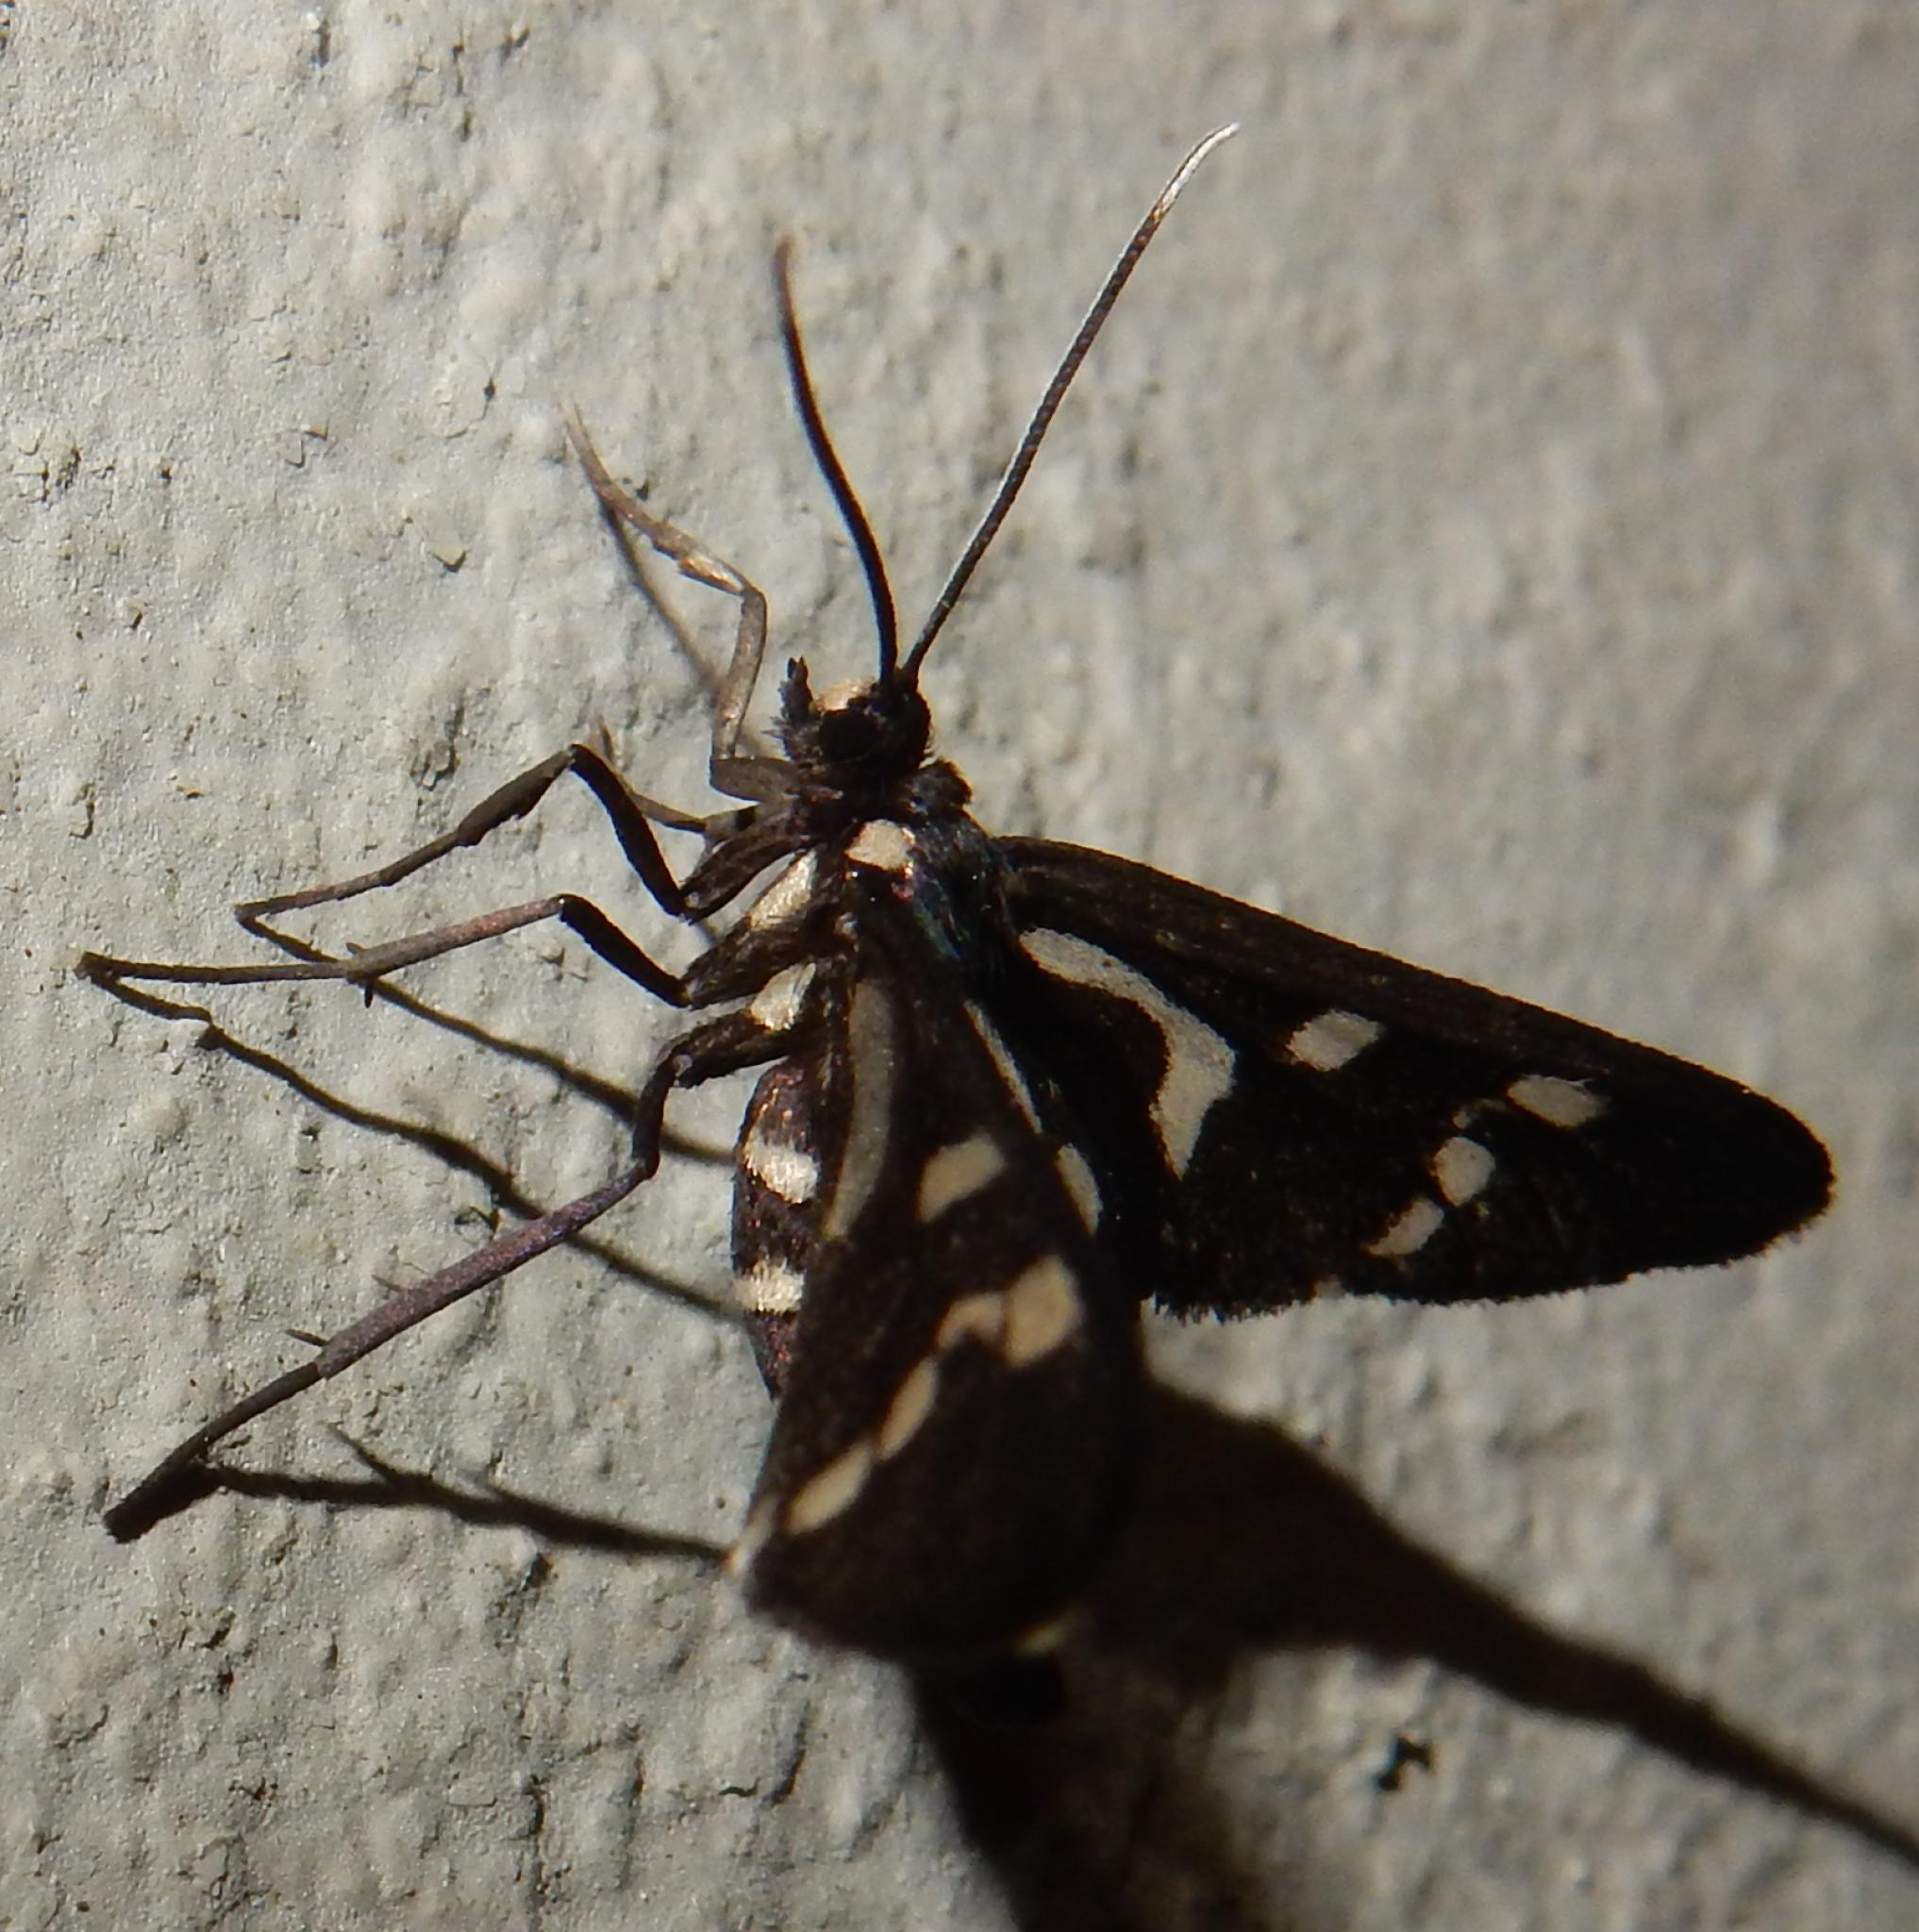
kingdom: Animalia
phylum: Arthropoda
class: Insecta
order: Lepidoptera
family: Erebidae
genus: Ceryx
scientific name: Ceryx toxotes
